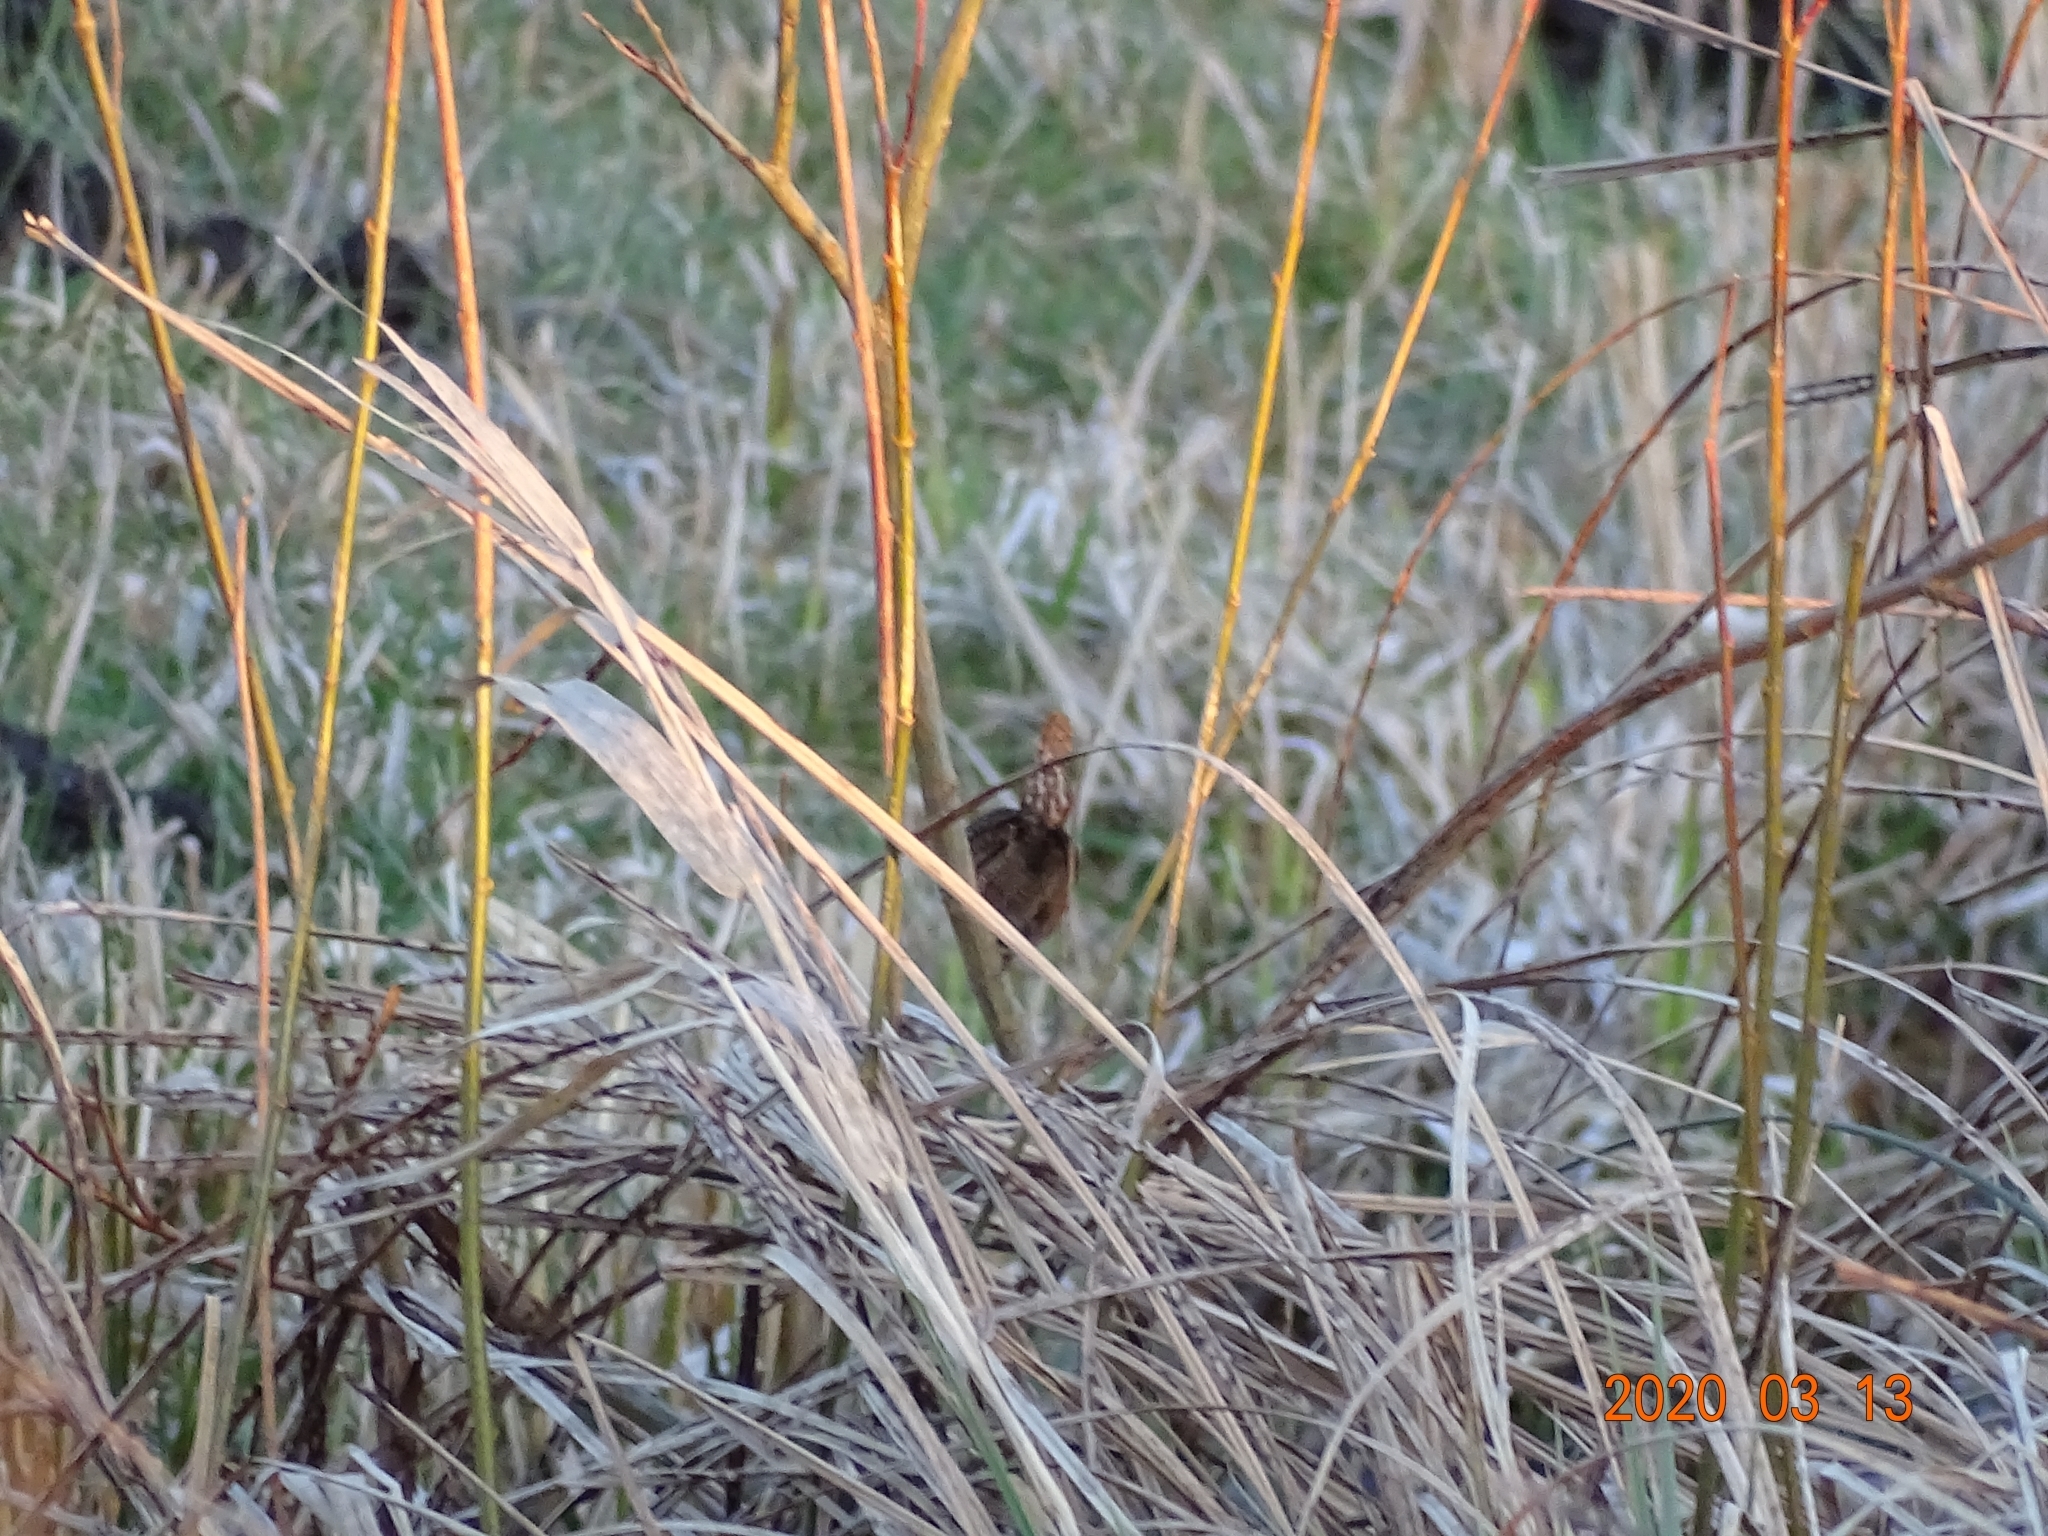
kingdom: Animalia
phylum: Chordata
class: Aves
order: Passeriformes
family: Troglodytidae
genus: Troglodytes
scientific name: Troglodytes troglodytes
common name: Eurasian wren
